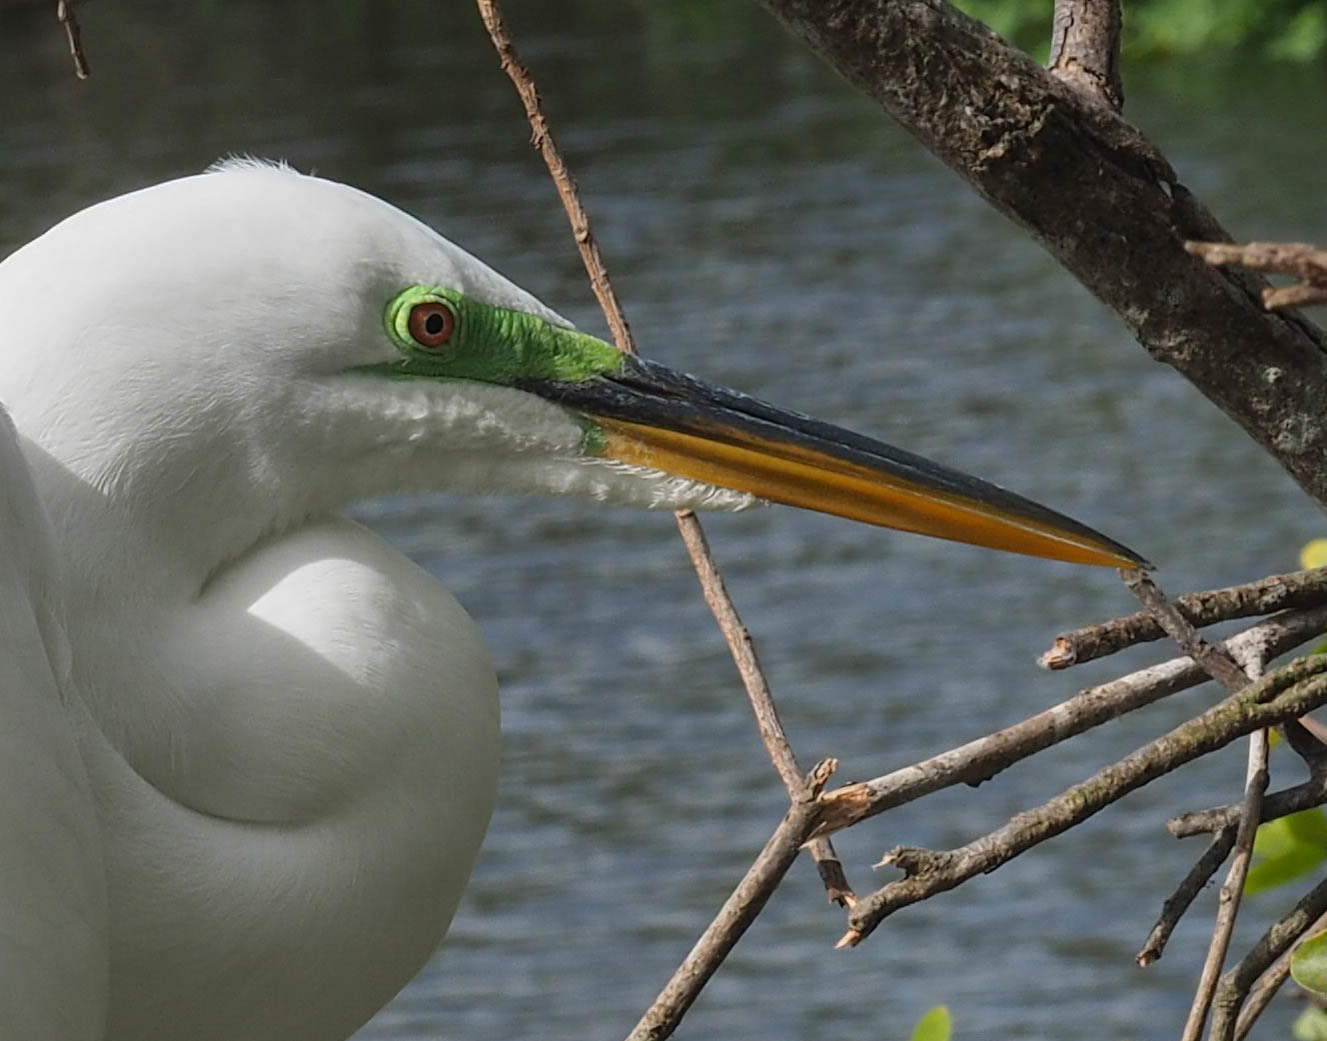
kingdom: Animalia
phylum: Chordata
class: Aves
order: Pelecaniformes
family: Ardeidae
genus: Ardea
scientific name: Ardea alba
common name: Great egret
